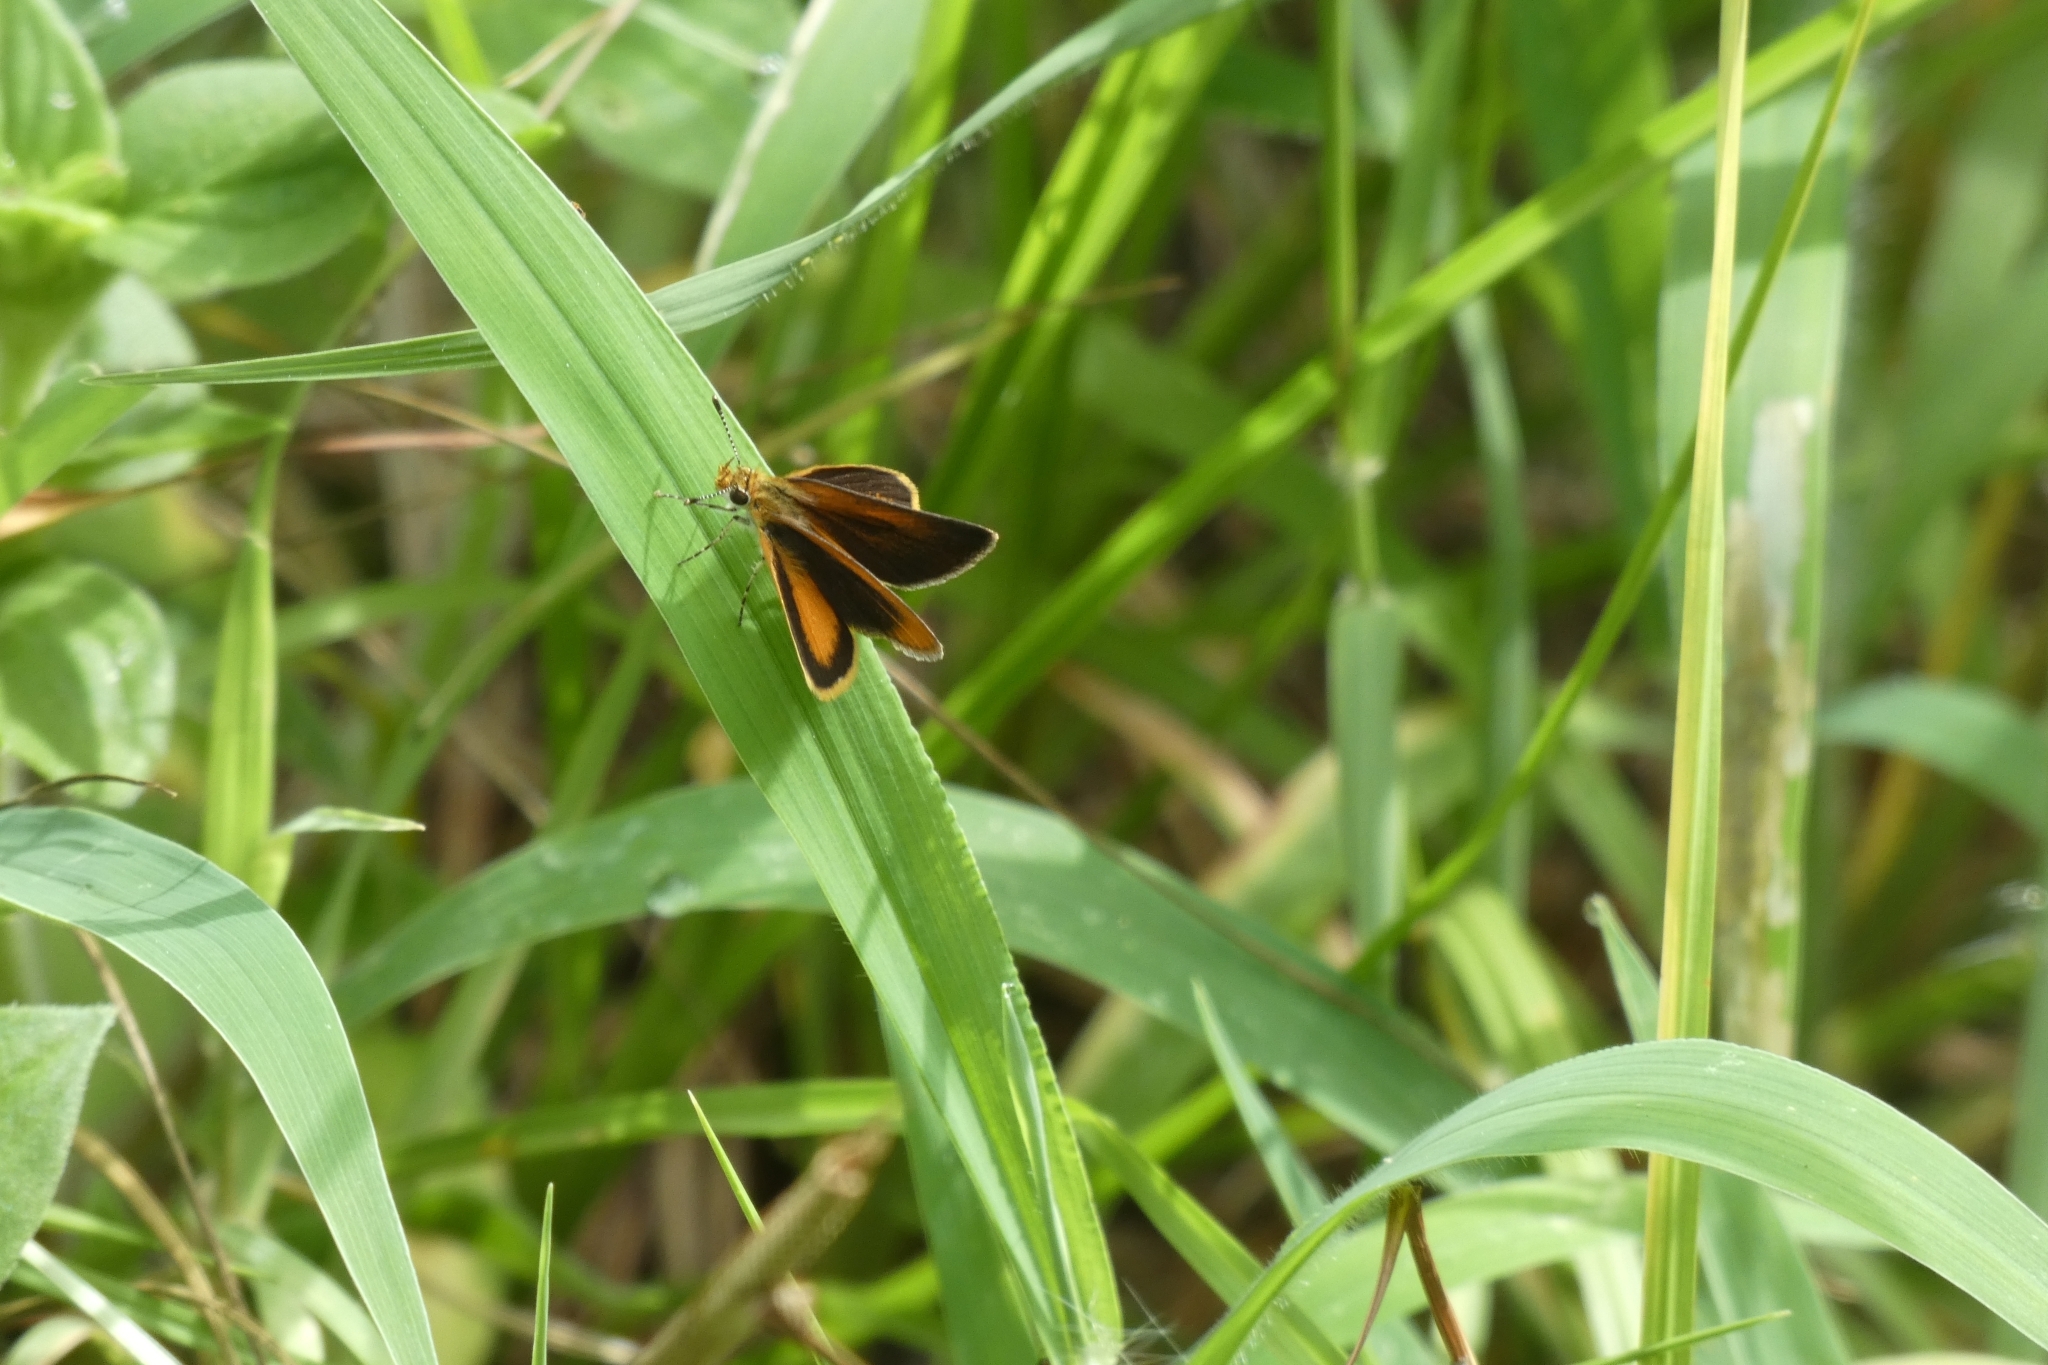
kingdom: Animalia
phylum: Arthropoda
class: Insecta
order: Lepidoptera
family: Hesperiidae
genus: Ancyloxypha
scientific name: Ancyloxypha numitor
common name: Least skipper
